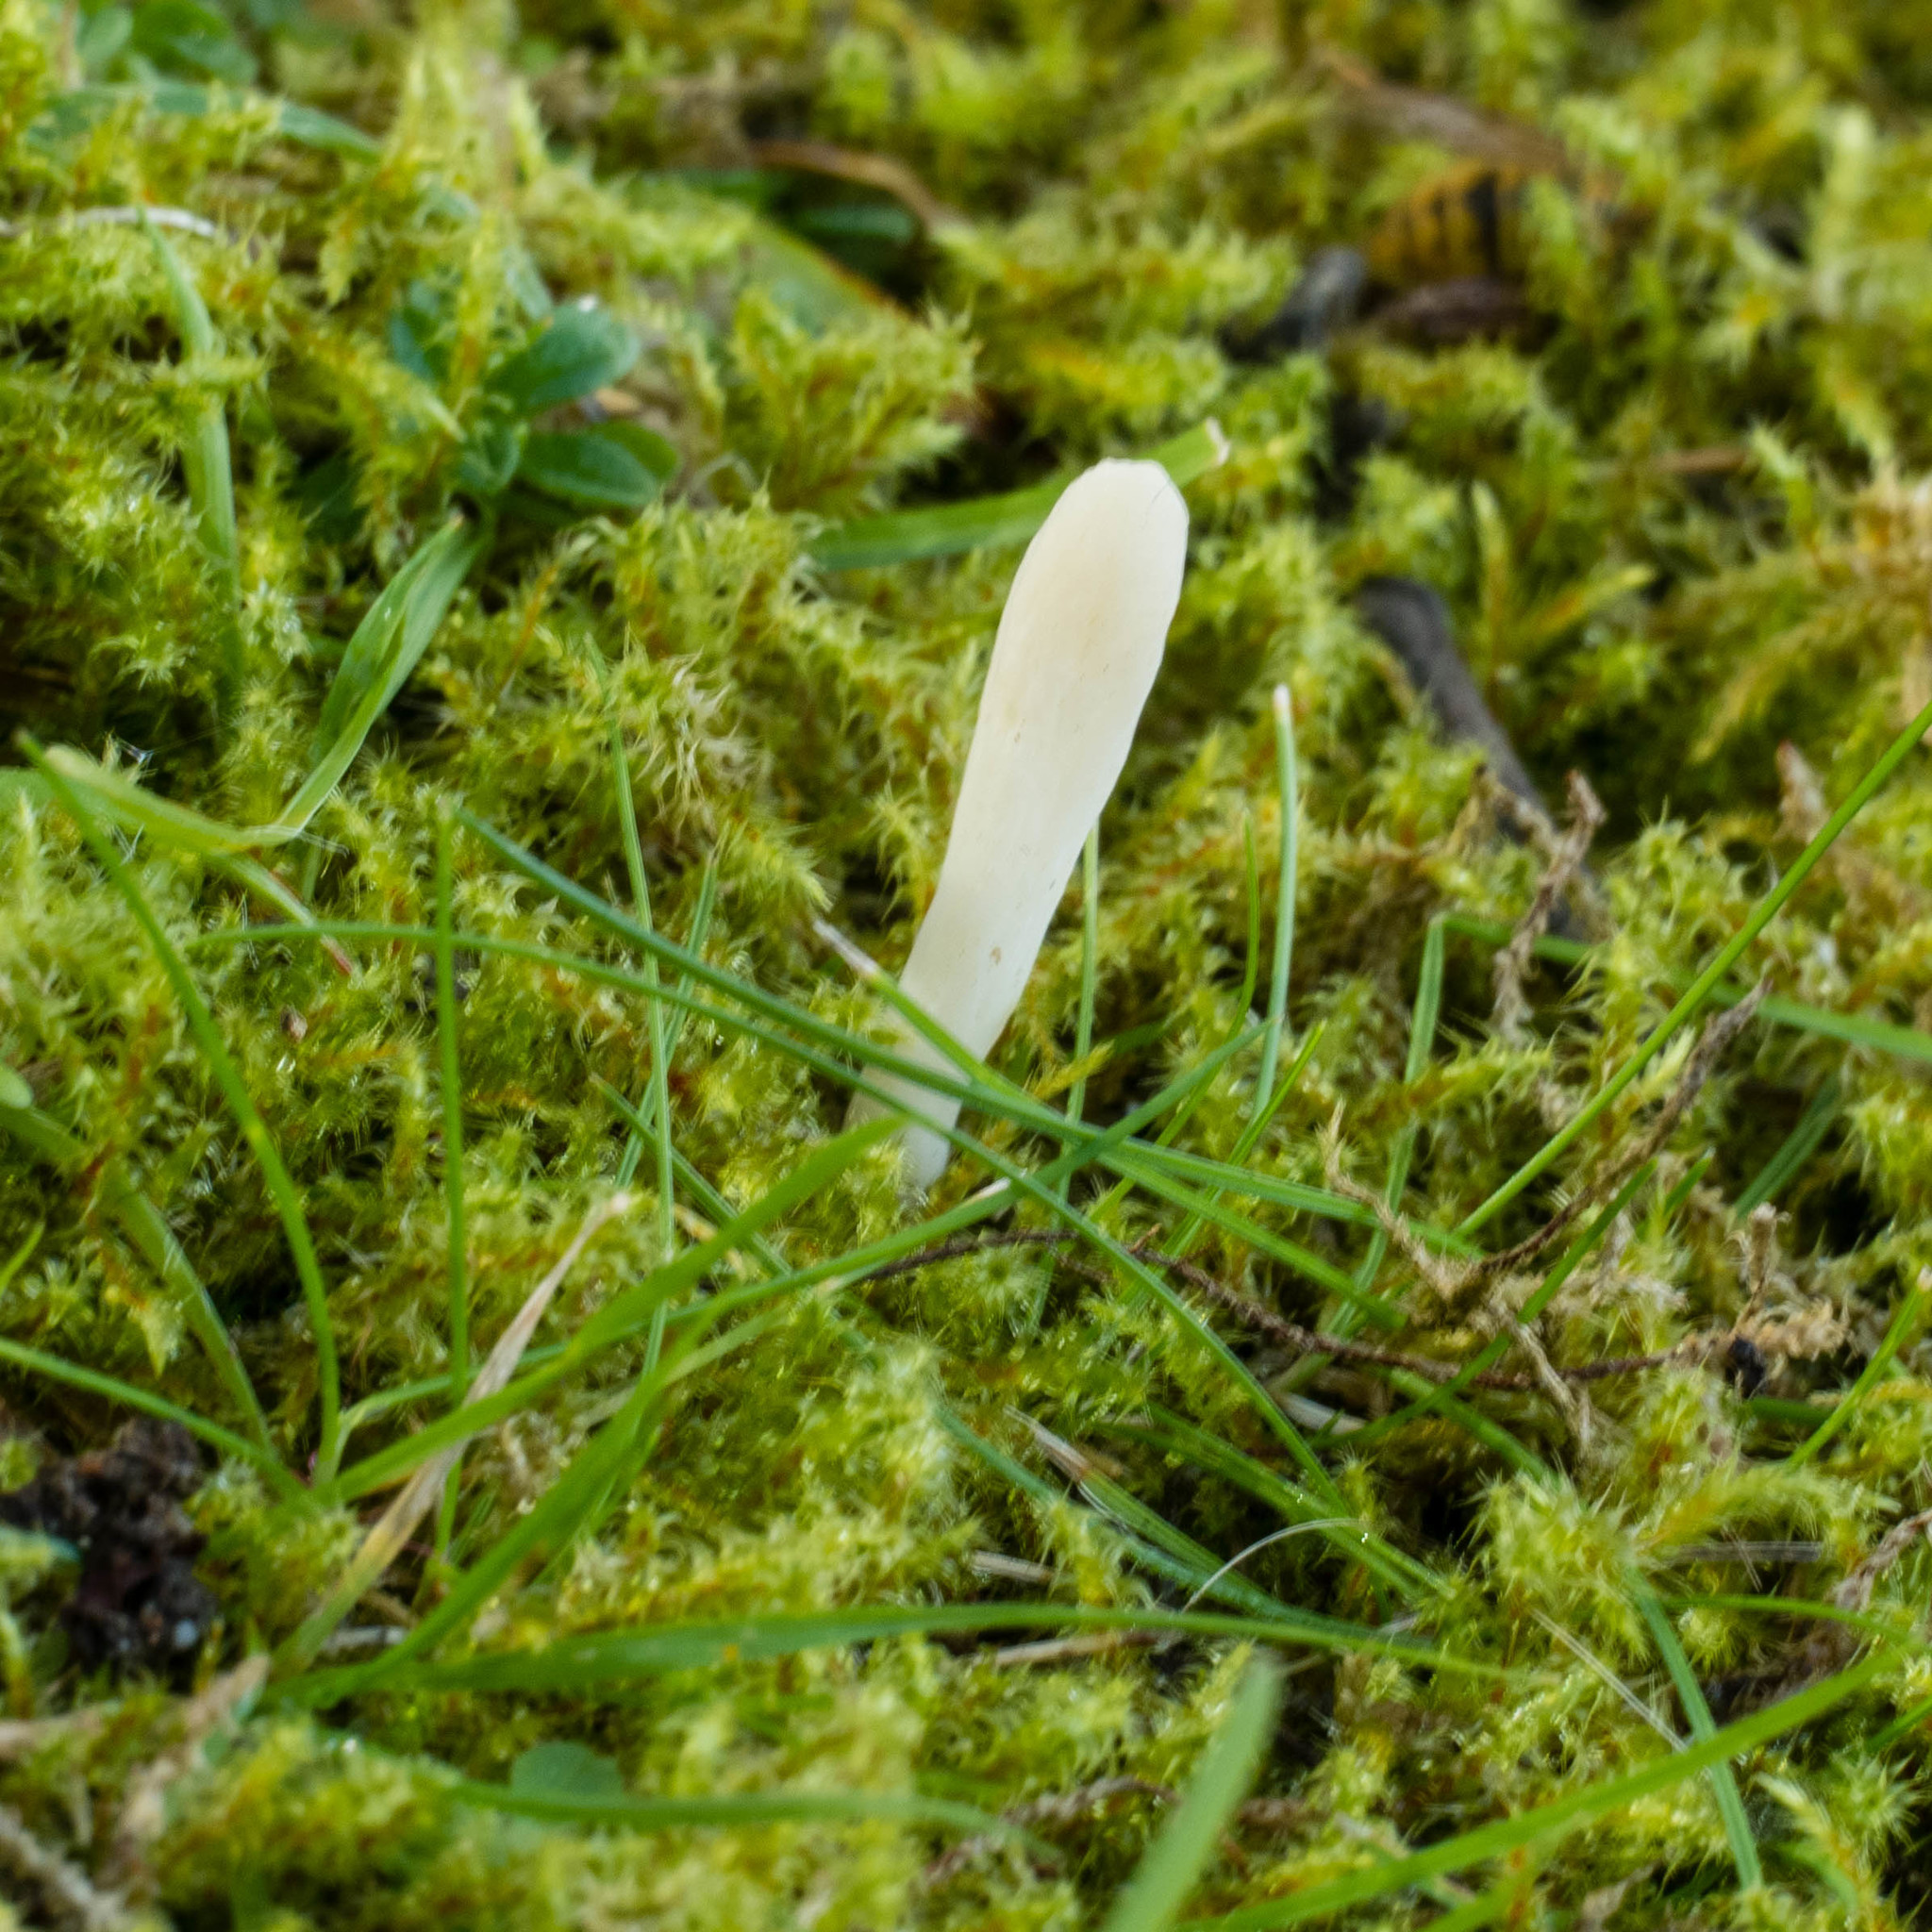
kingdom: Fungi
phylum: Basidiomycota
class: Agaricomycetes
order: Agaricales
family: Clavariaceae
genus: Clavaria
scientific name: Clavaria acuta
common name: Pointed club
